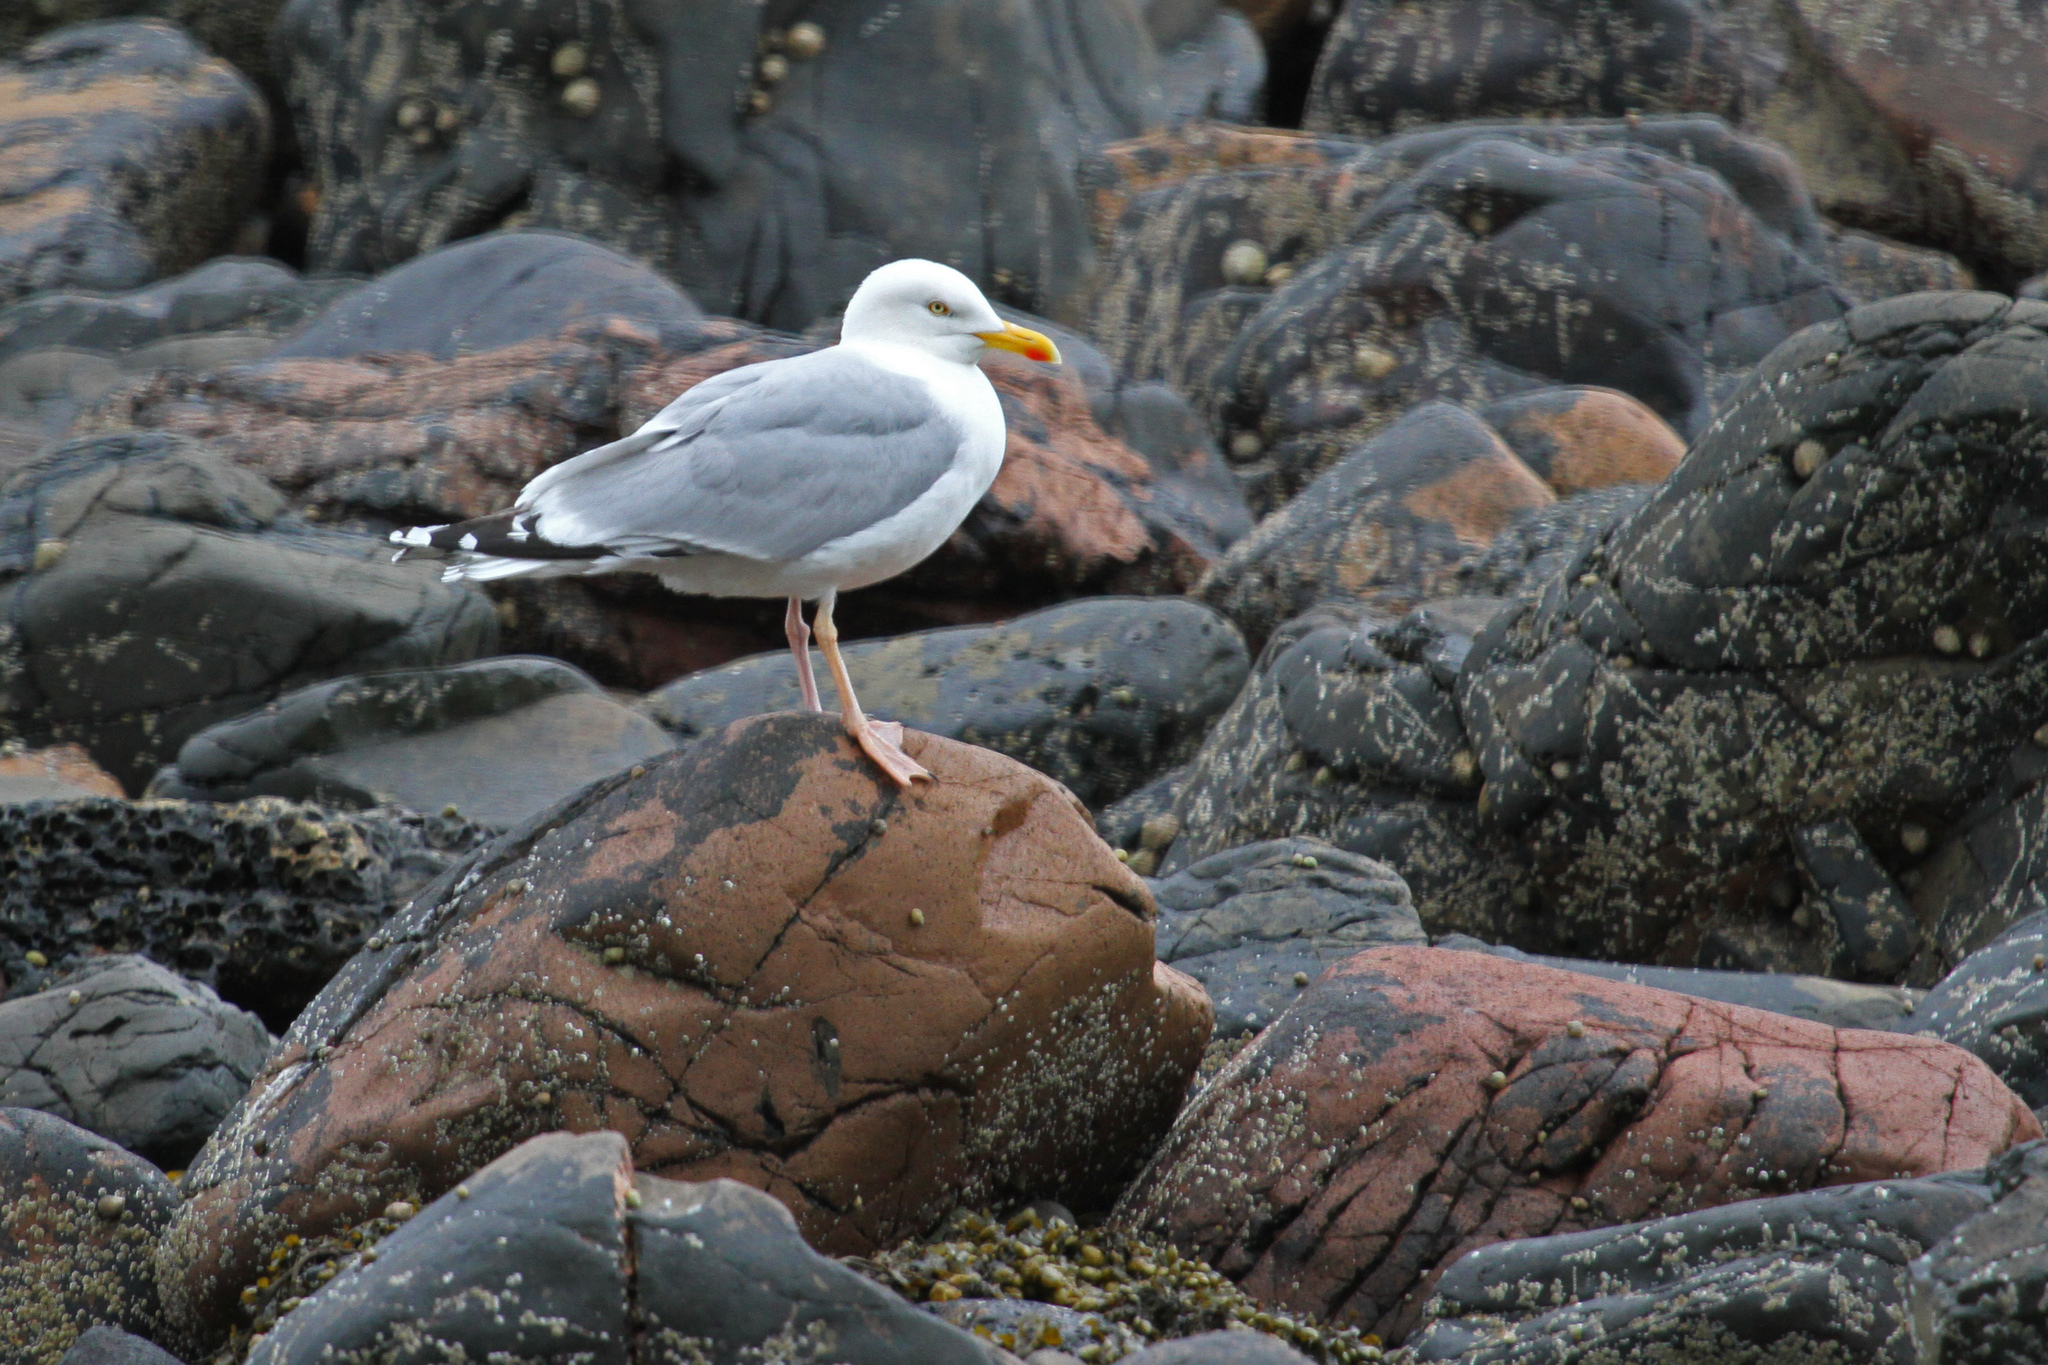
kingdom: Animalia
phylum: Chordata
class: Aves
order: Charadriiformes
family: Laridae
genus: Larus
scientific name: Larus argentatus
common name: Herring gull
